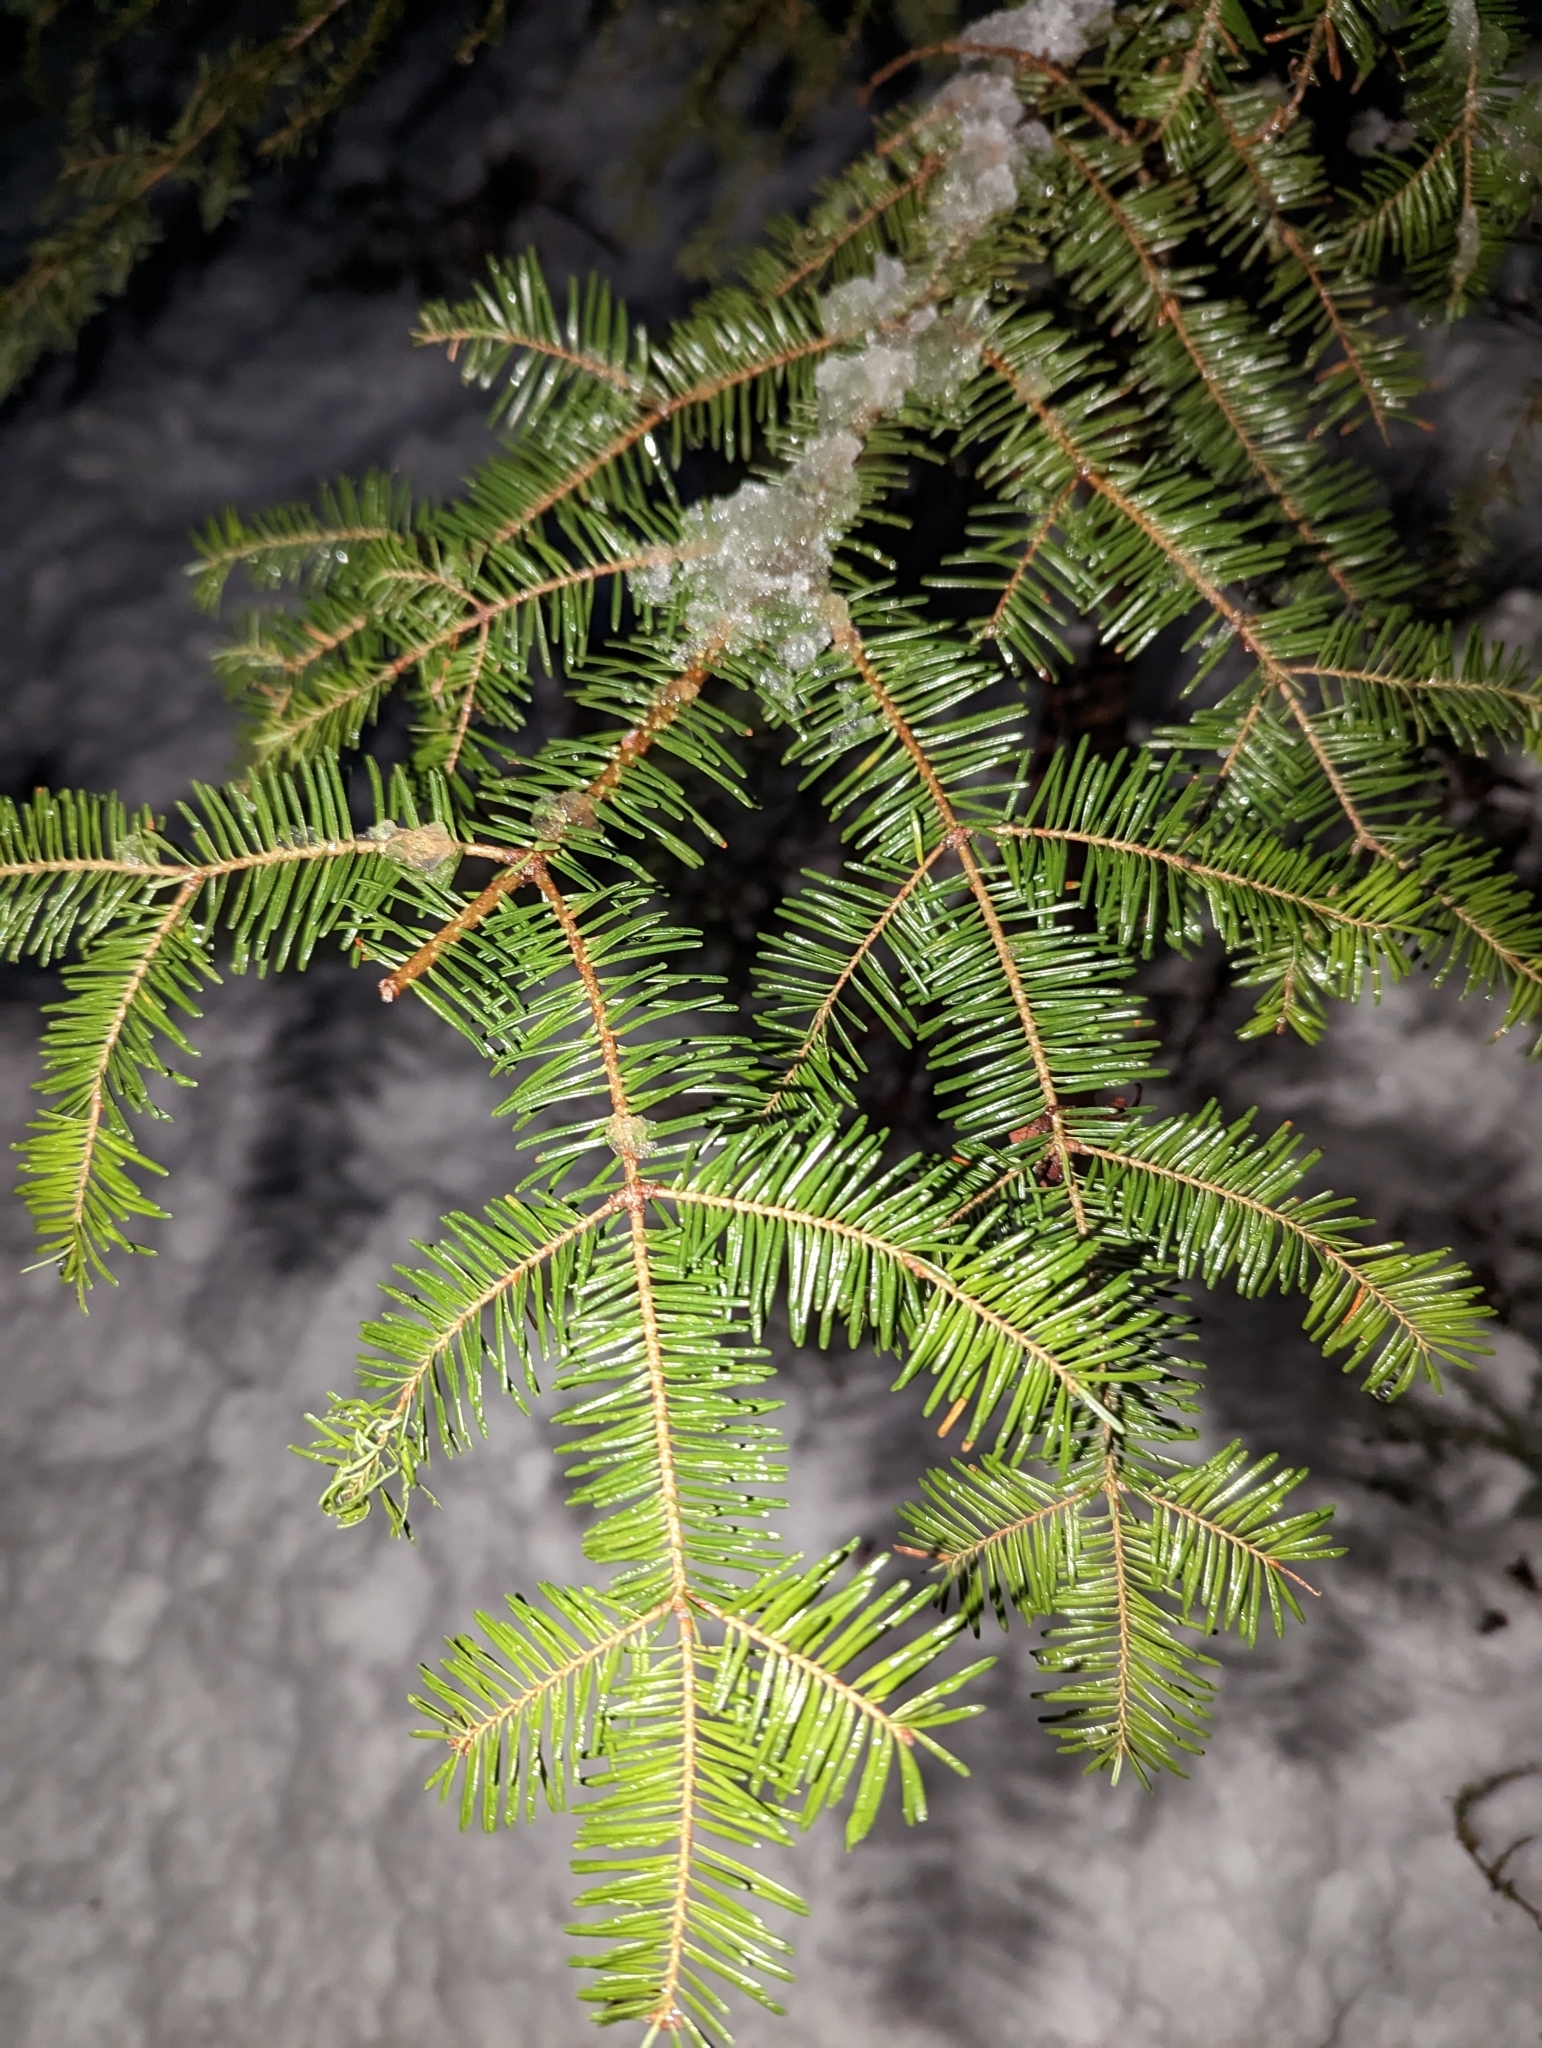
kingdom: Plantae
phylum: Tracheophyta
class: Pinopsida
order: Pinales
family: Pinaceae
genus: Abies
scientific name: Abies balsamea
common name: Balsam fir
